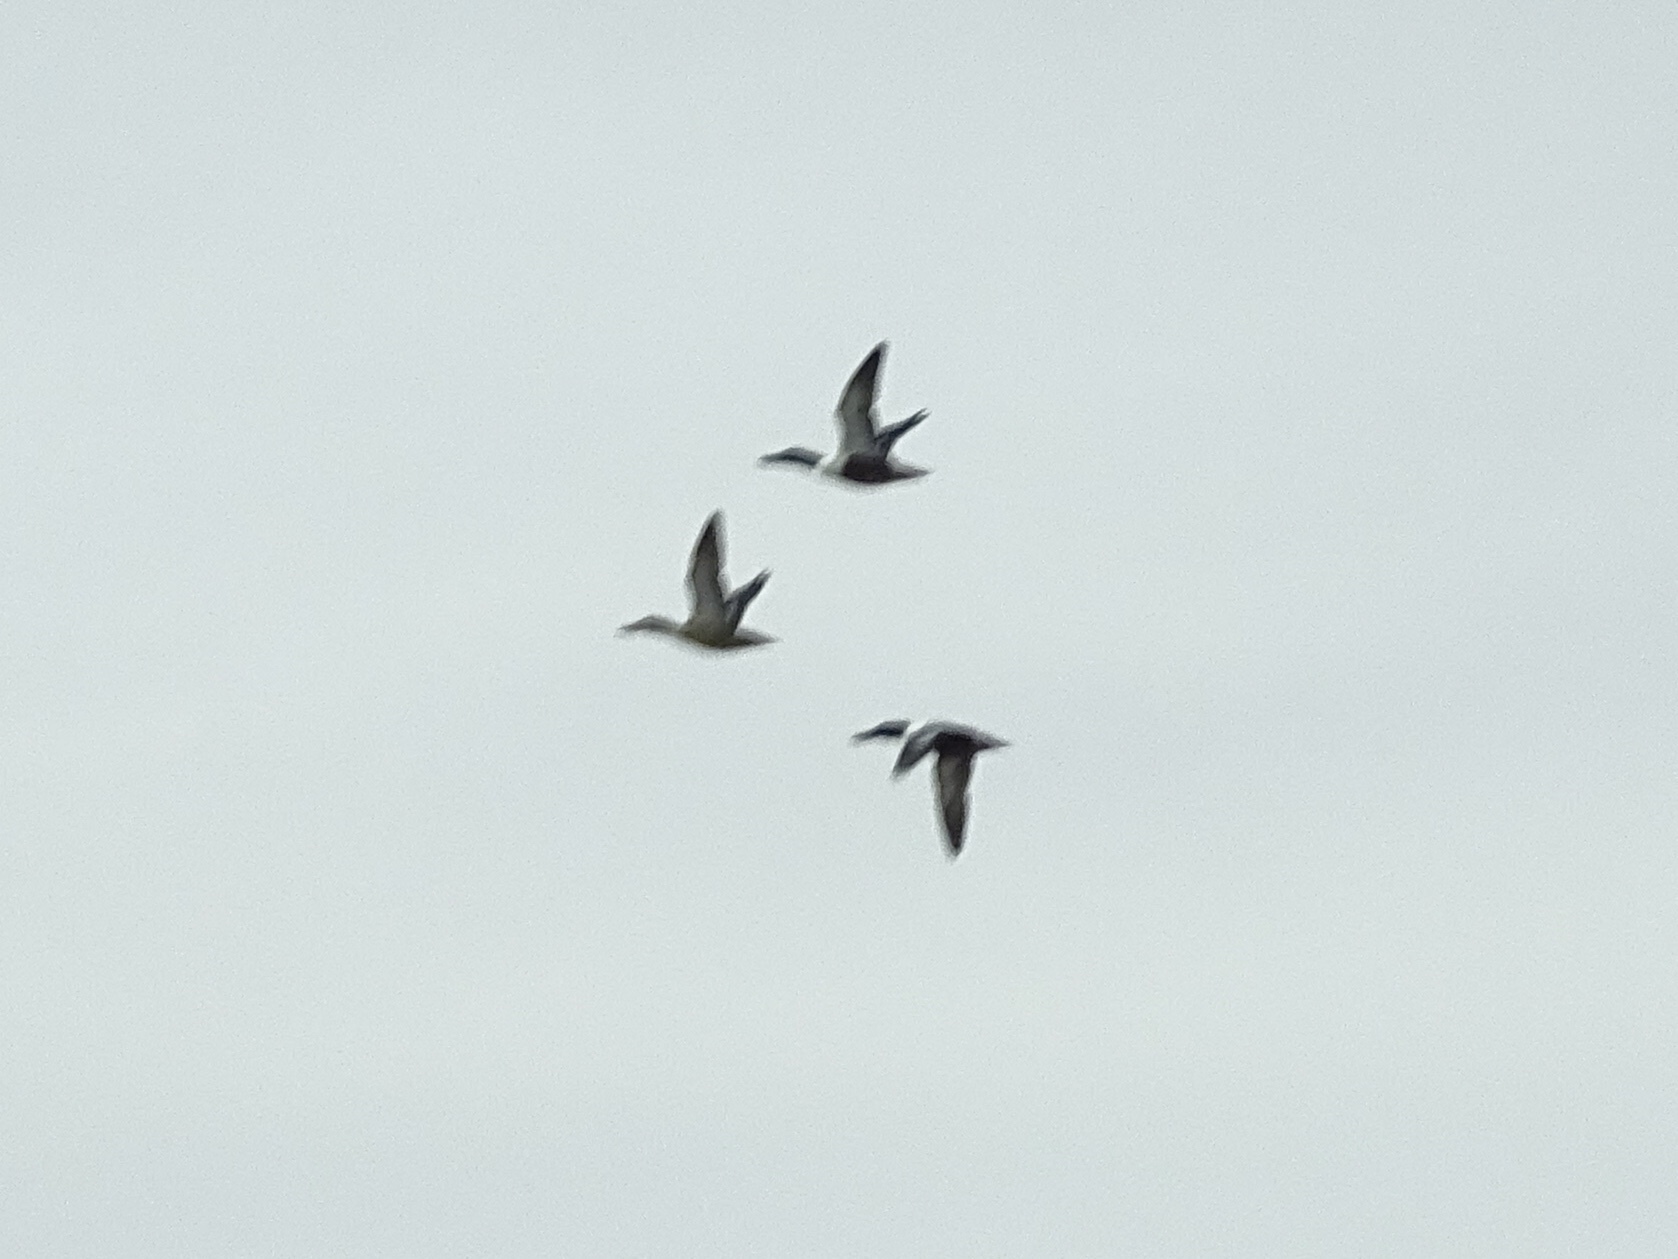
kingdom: Animalia
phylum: Chordata
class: Aves
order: Anseriformes
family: Anatidae
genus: Spatula
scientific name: Spatula clypeata
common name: Northern shoveler
